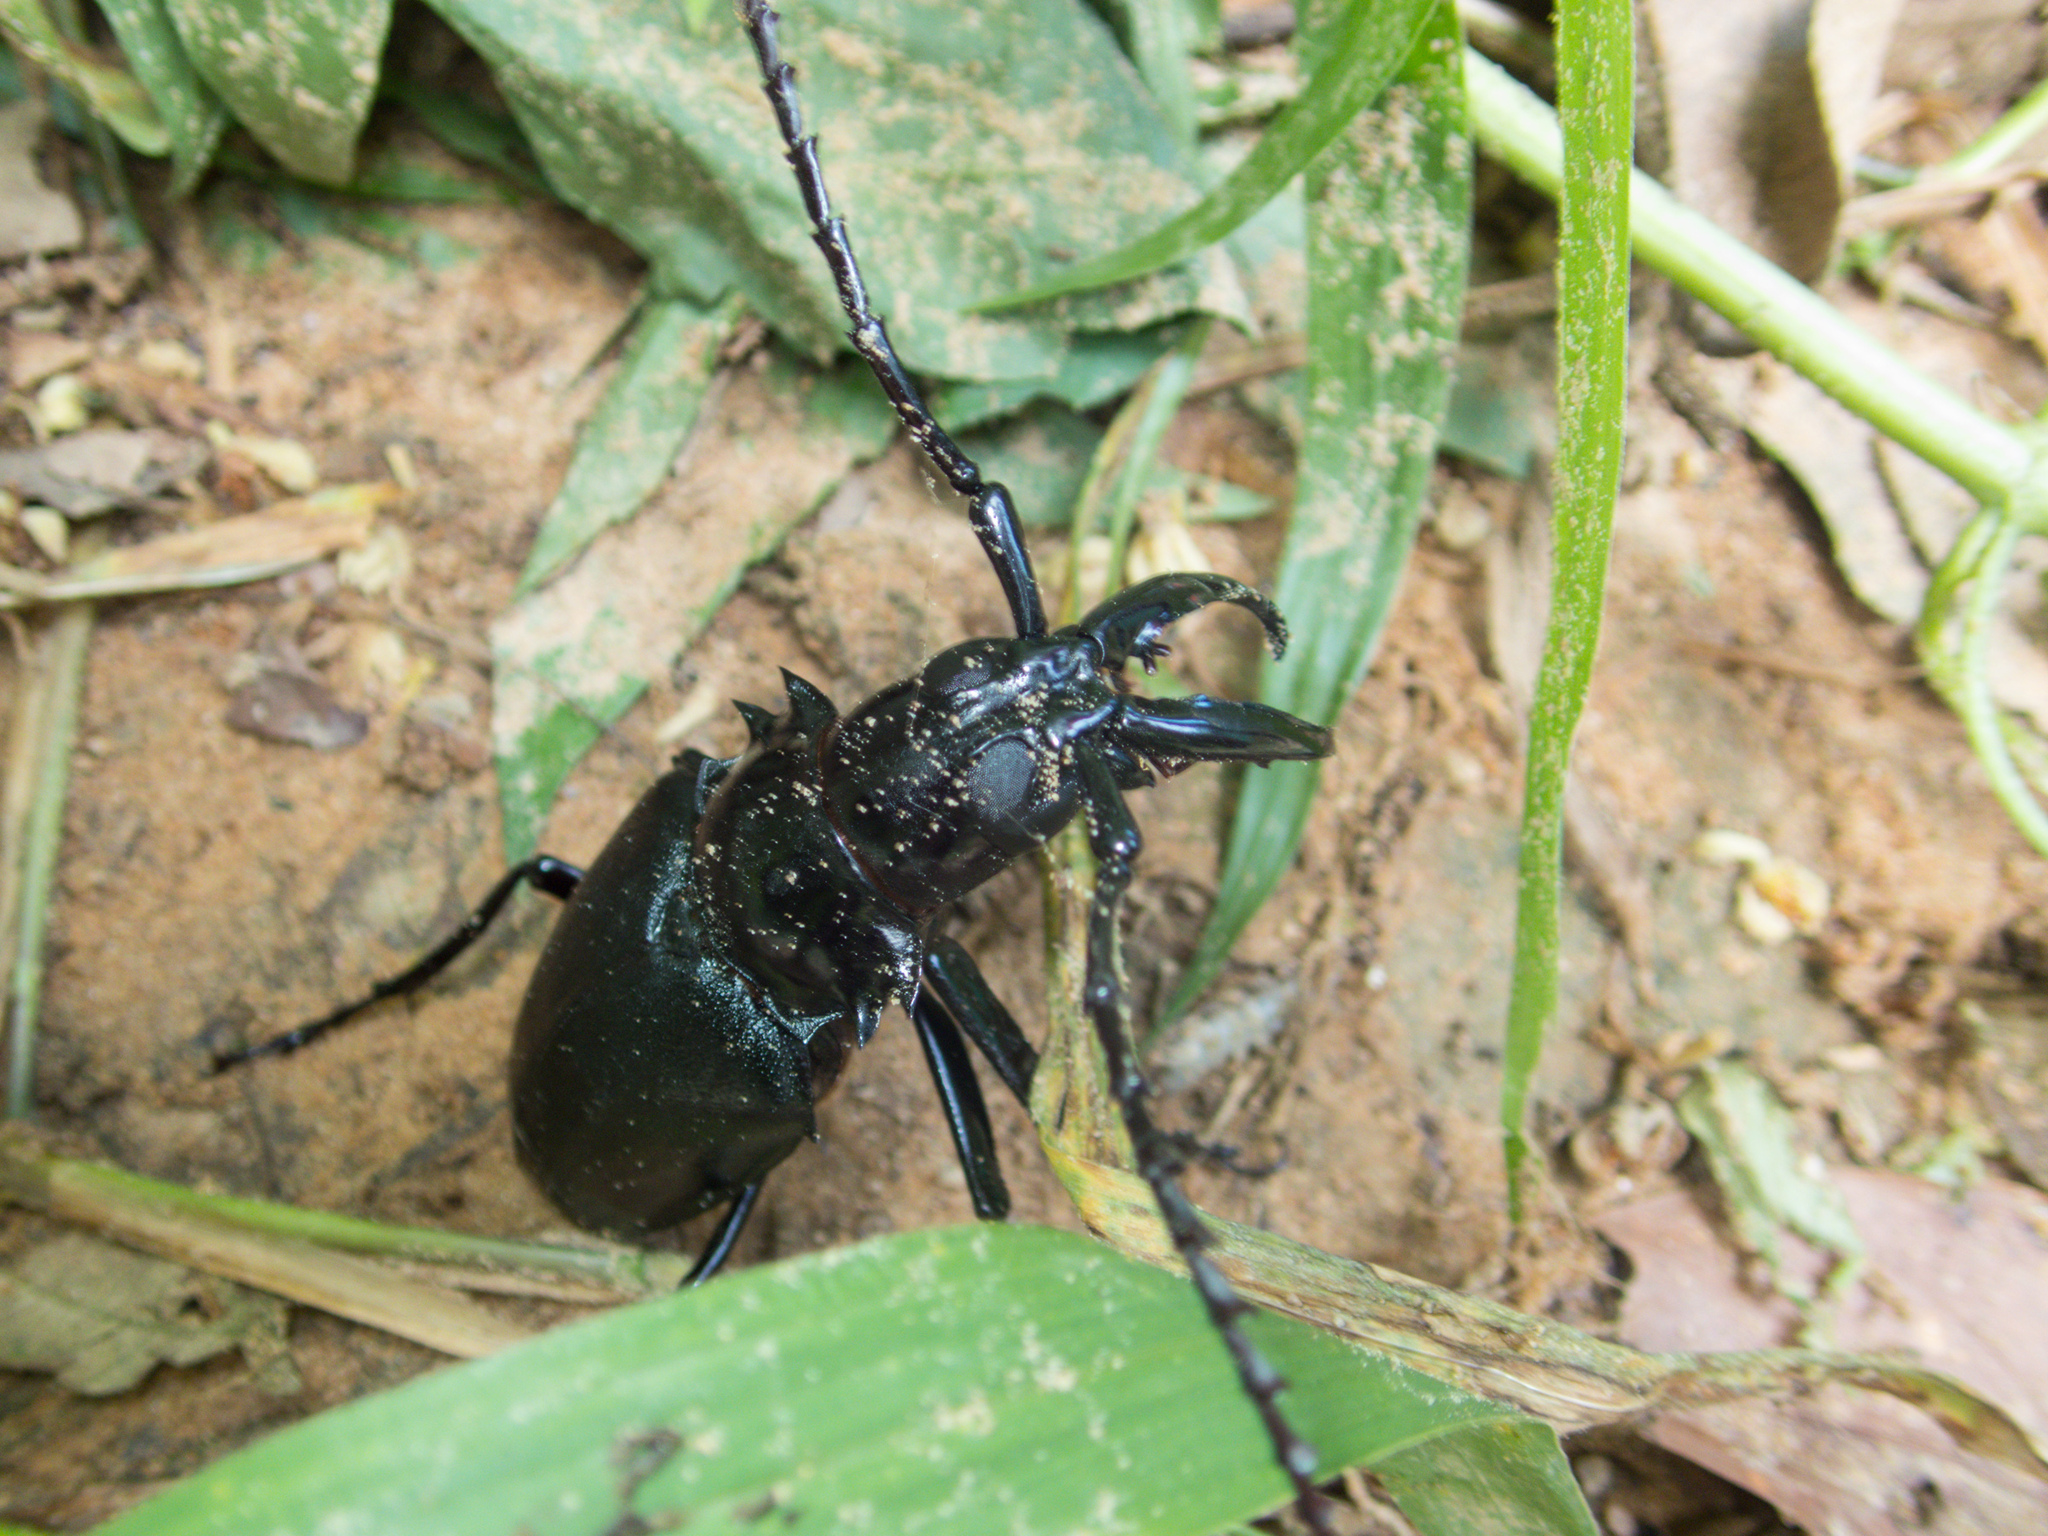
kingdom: Animalia
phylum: Arthropoda
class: Insecta
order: Coleoptera
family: Cerambycidae
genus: Dorysthenes
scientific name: Dorysthenes walkeri
